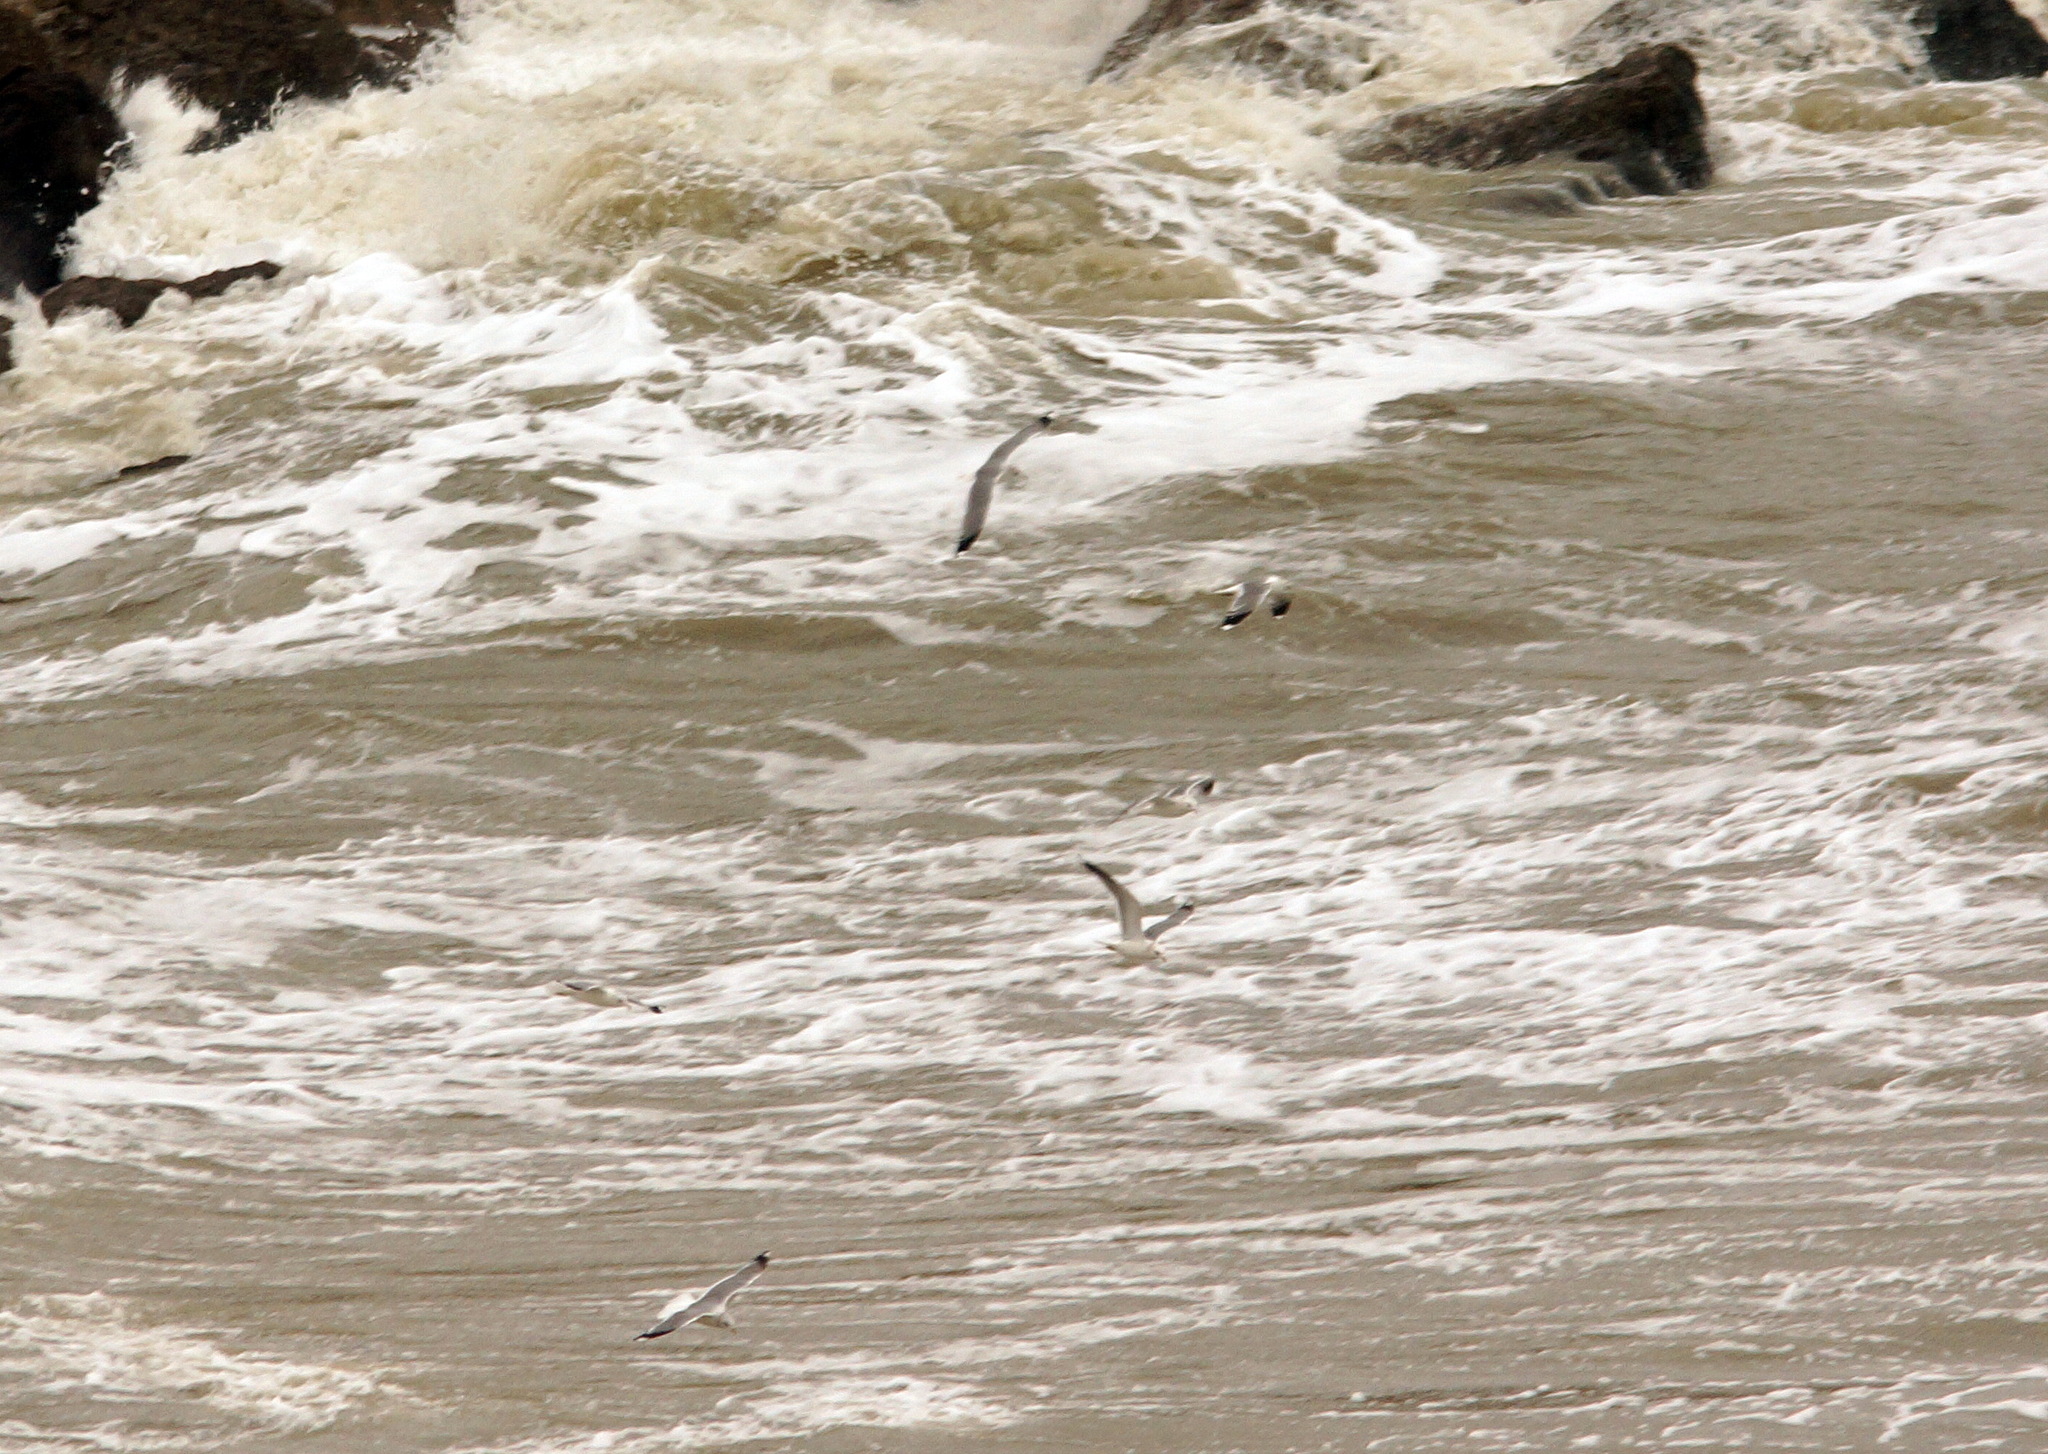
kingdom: Animalia
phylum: Chordata
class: Aves
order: Charadriiformes
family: Laridae
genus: Larus
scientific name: Larus canus
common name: Mew gull
